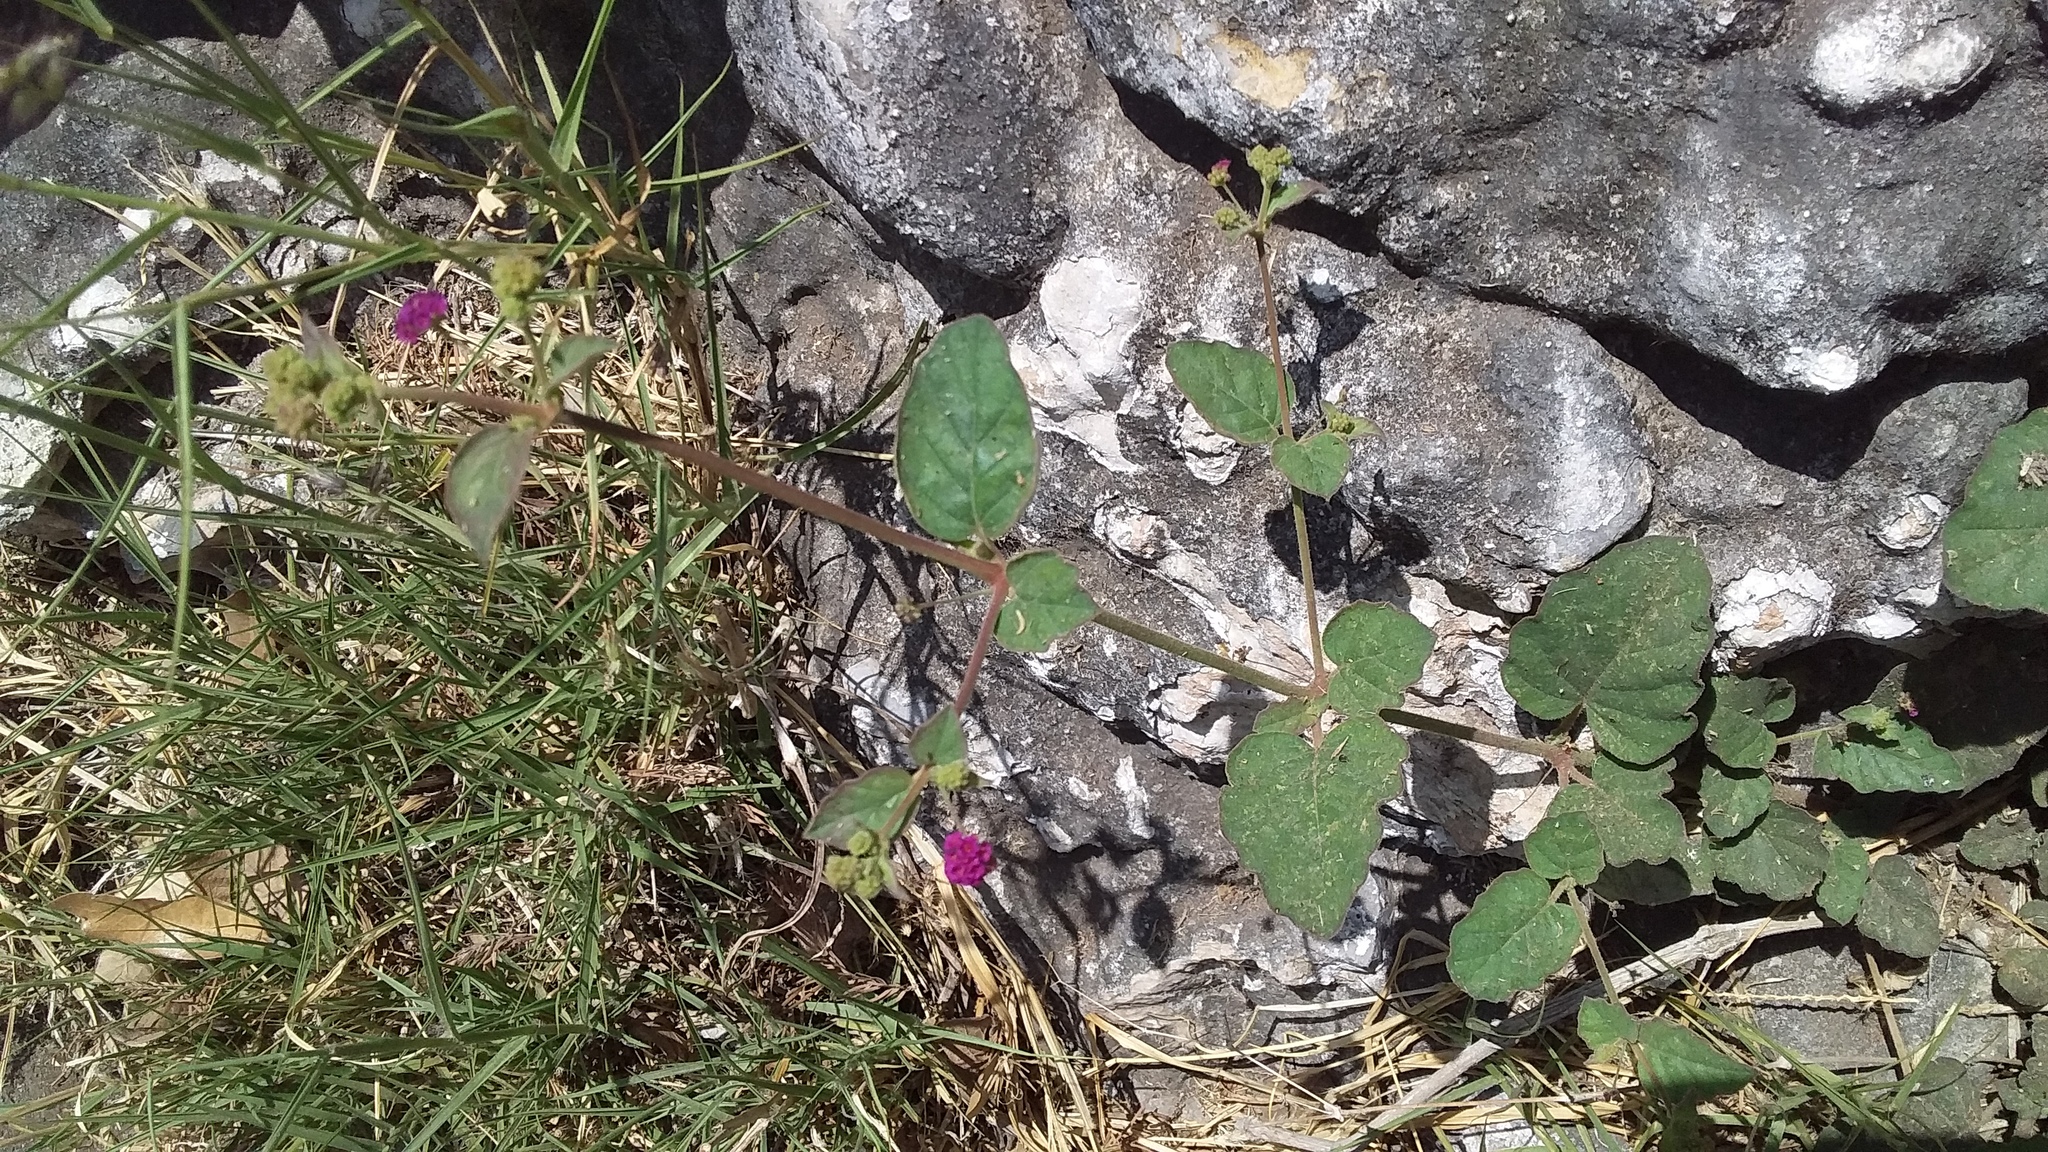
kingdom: Plantae
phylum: Tracheophyta
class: Magnoliopsida
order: Caryophyllales
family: Nyctaginaceae
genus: Boerhavia
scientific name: Boerhavia coccinea
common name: Scarlet spiderling
